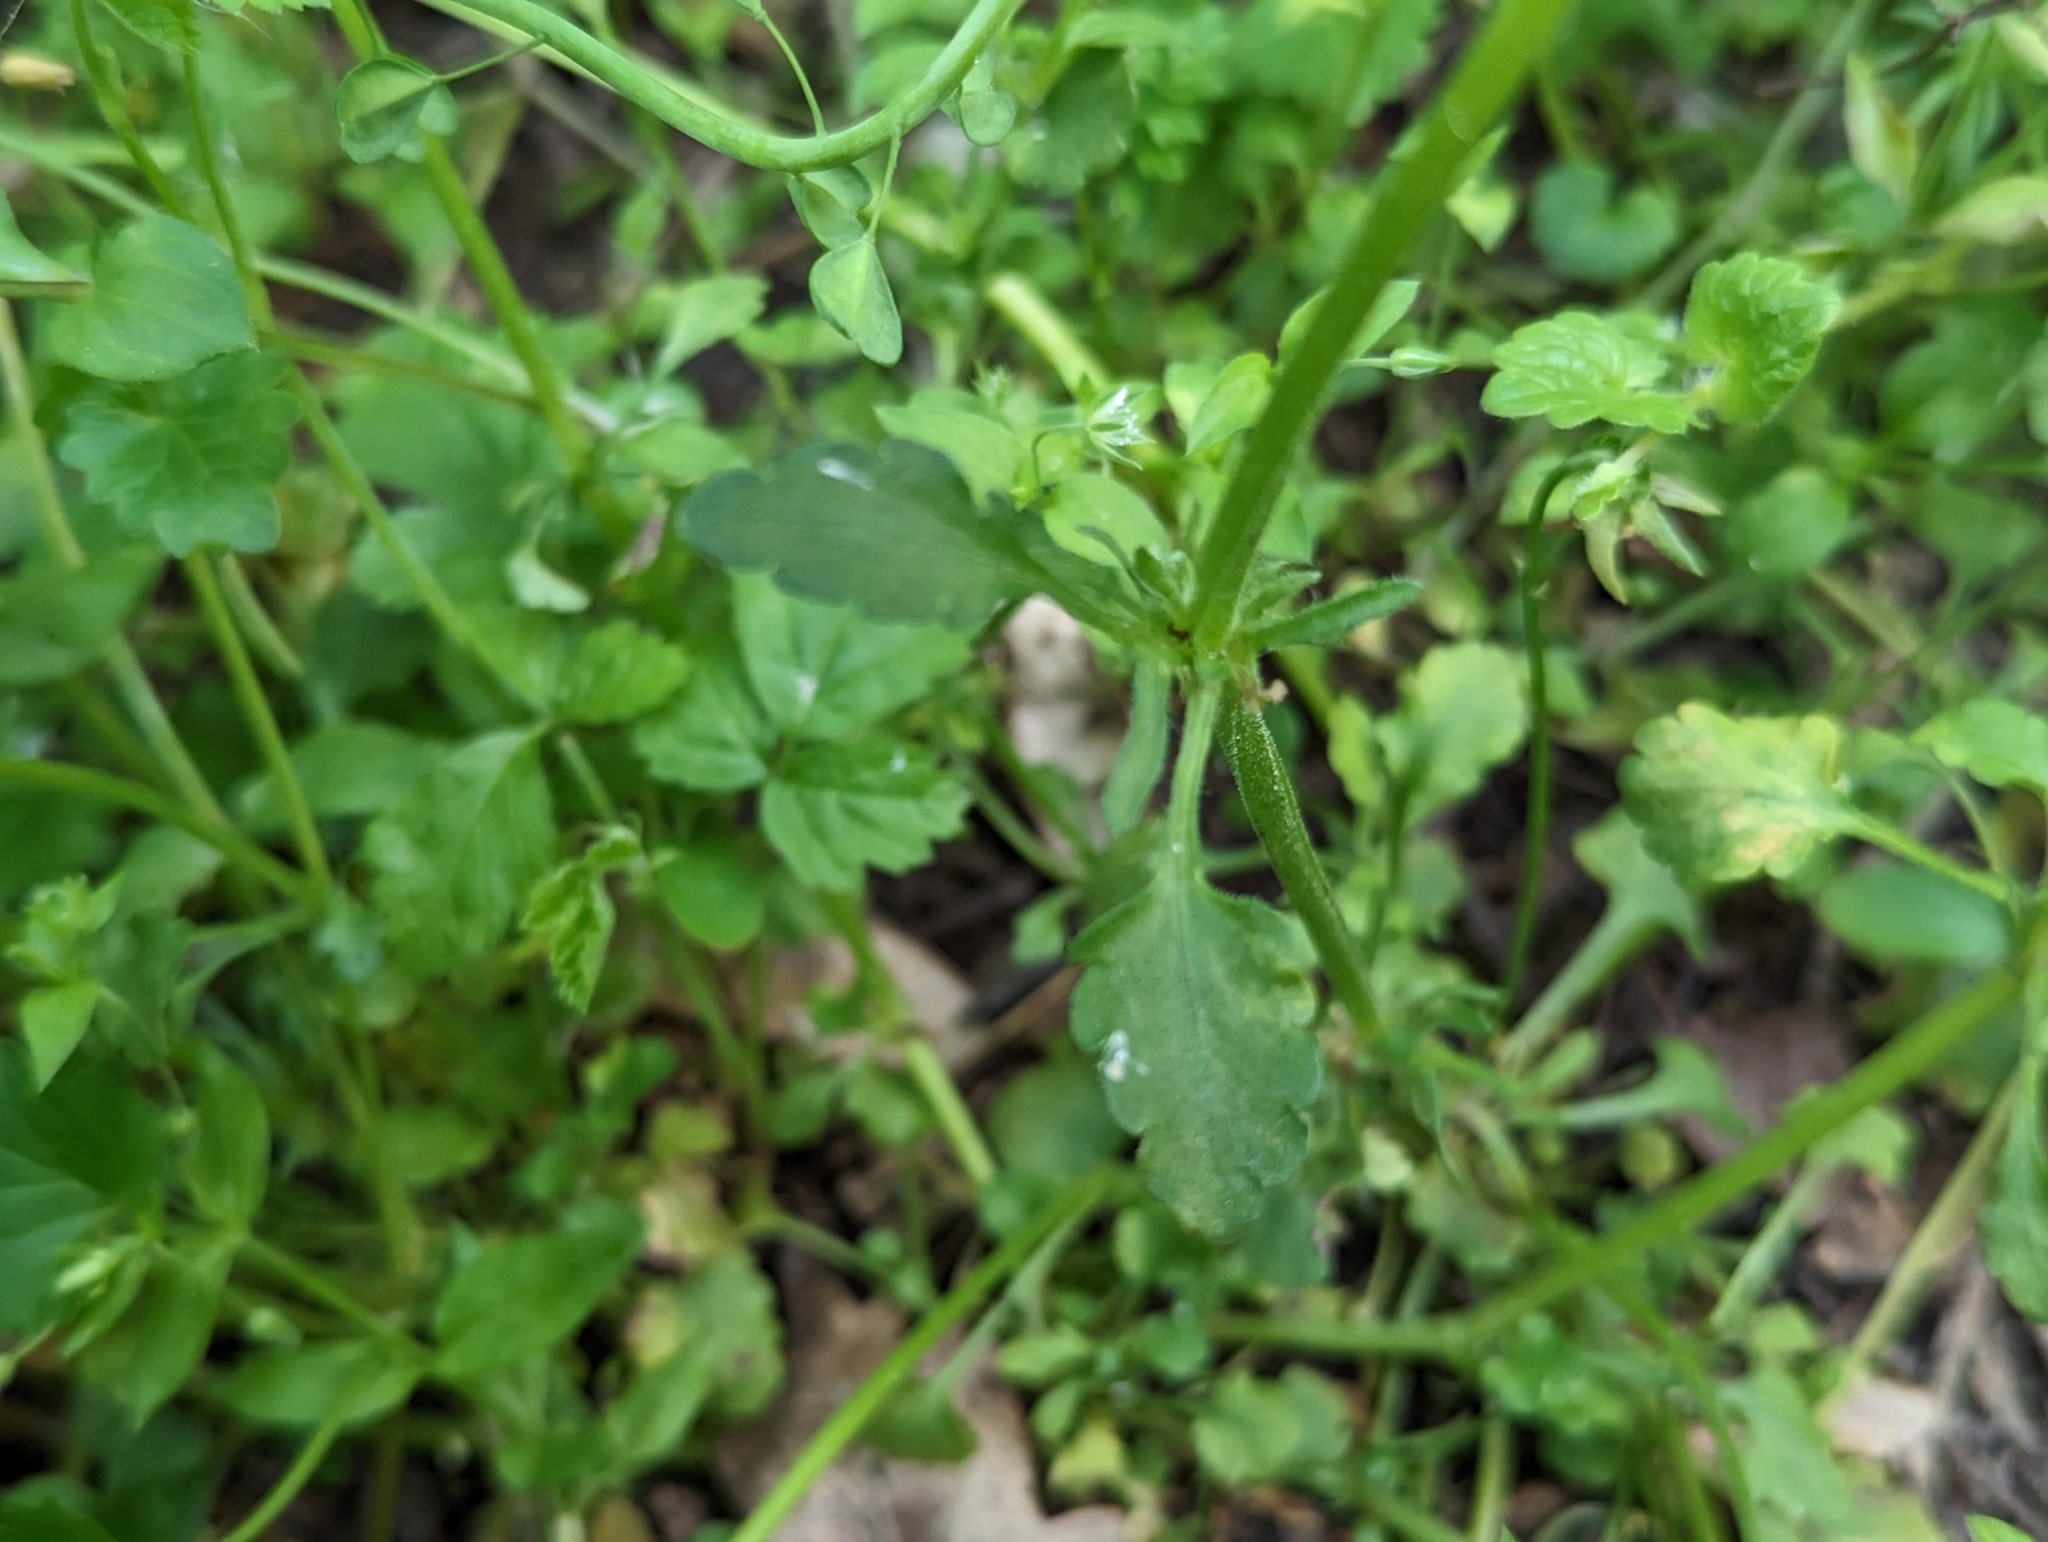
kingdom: Plantae
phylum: Tracheophyta
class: Magnoliopsida
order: Malpighiales
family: Violaceae
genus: Viola
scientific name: Viola arvensis
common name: Field pansy
